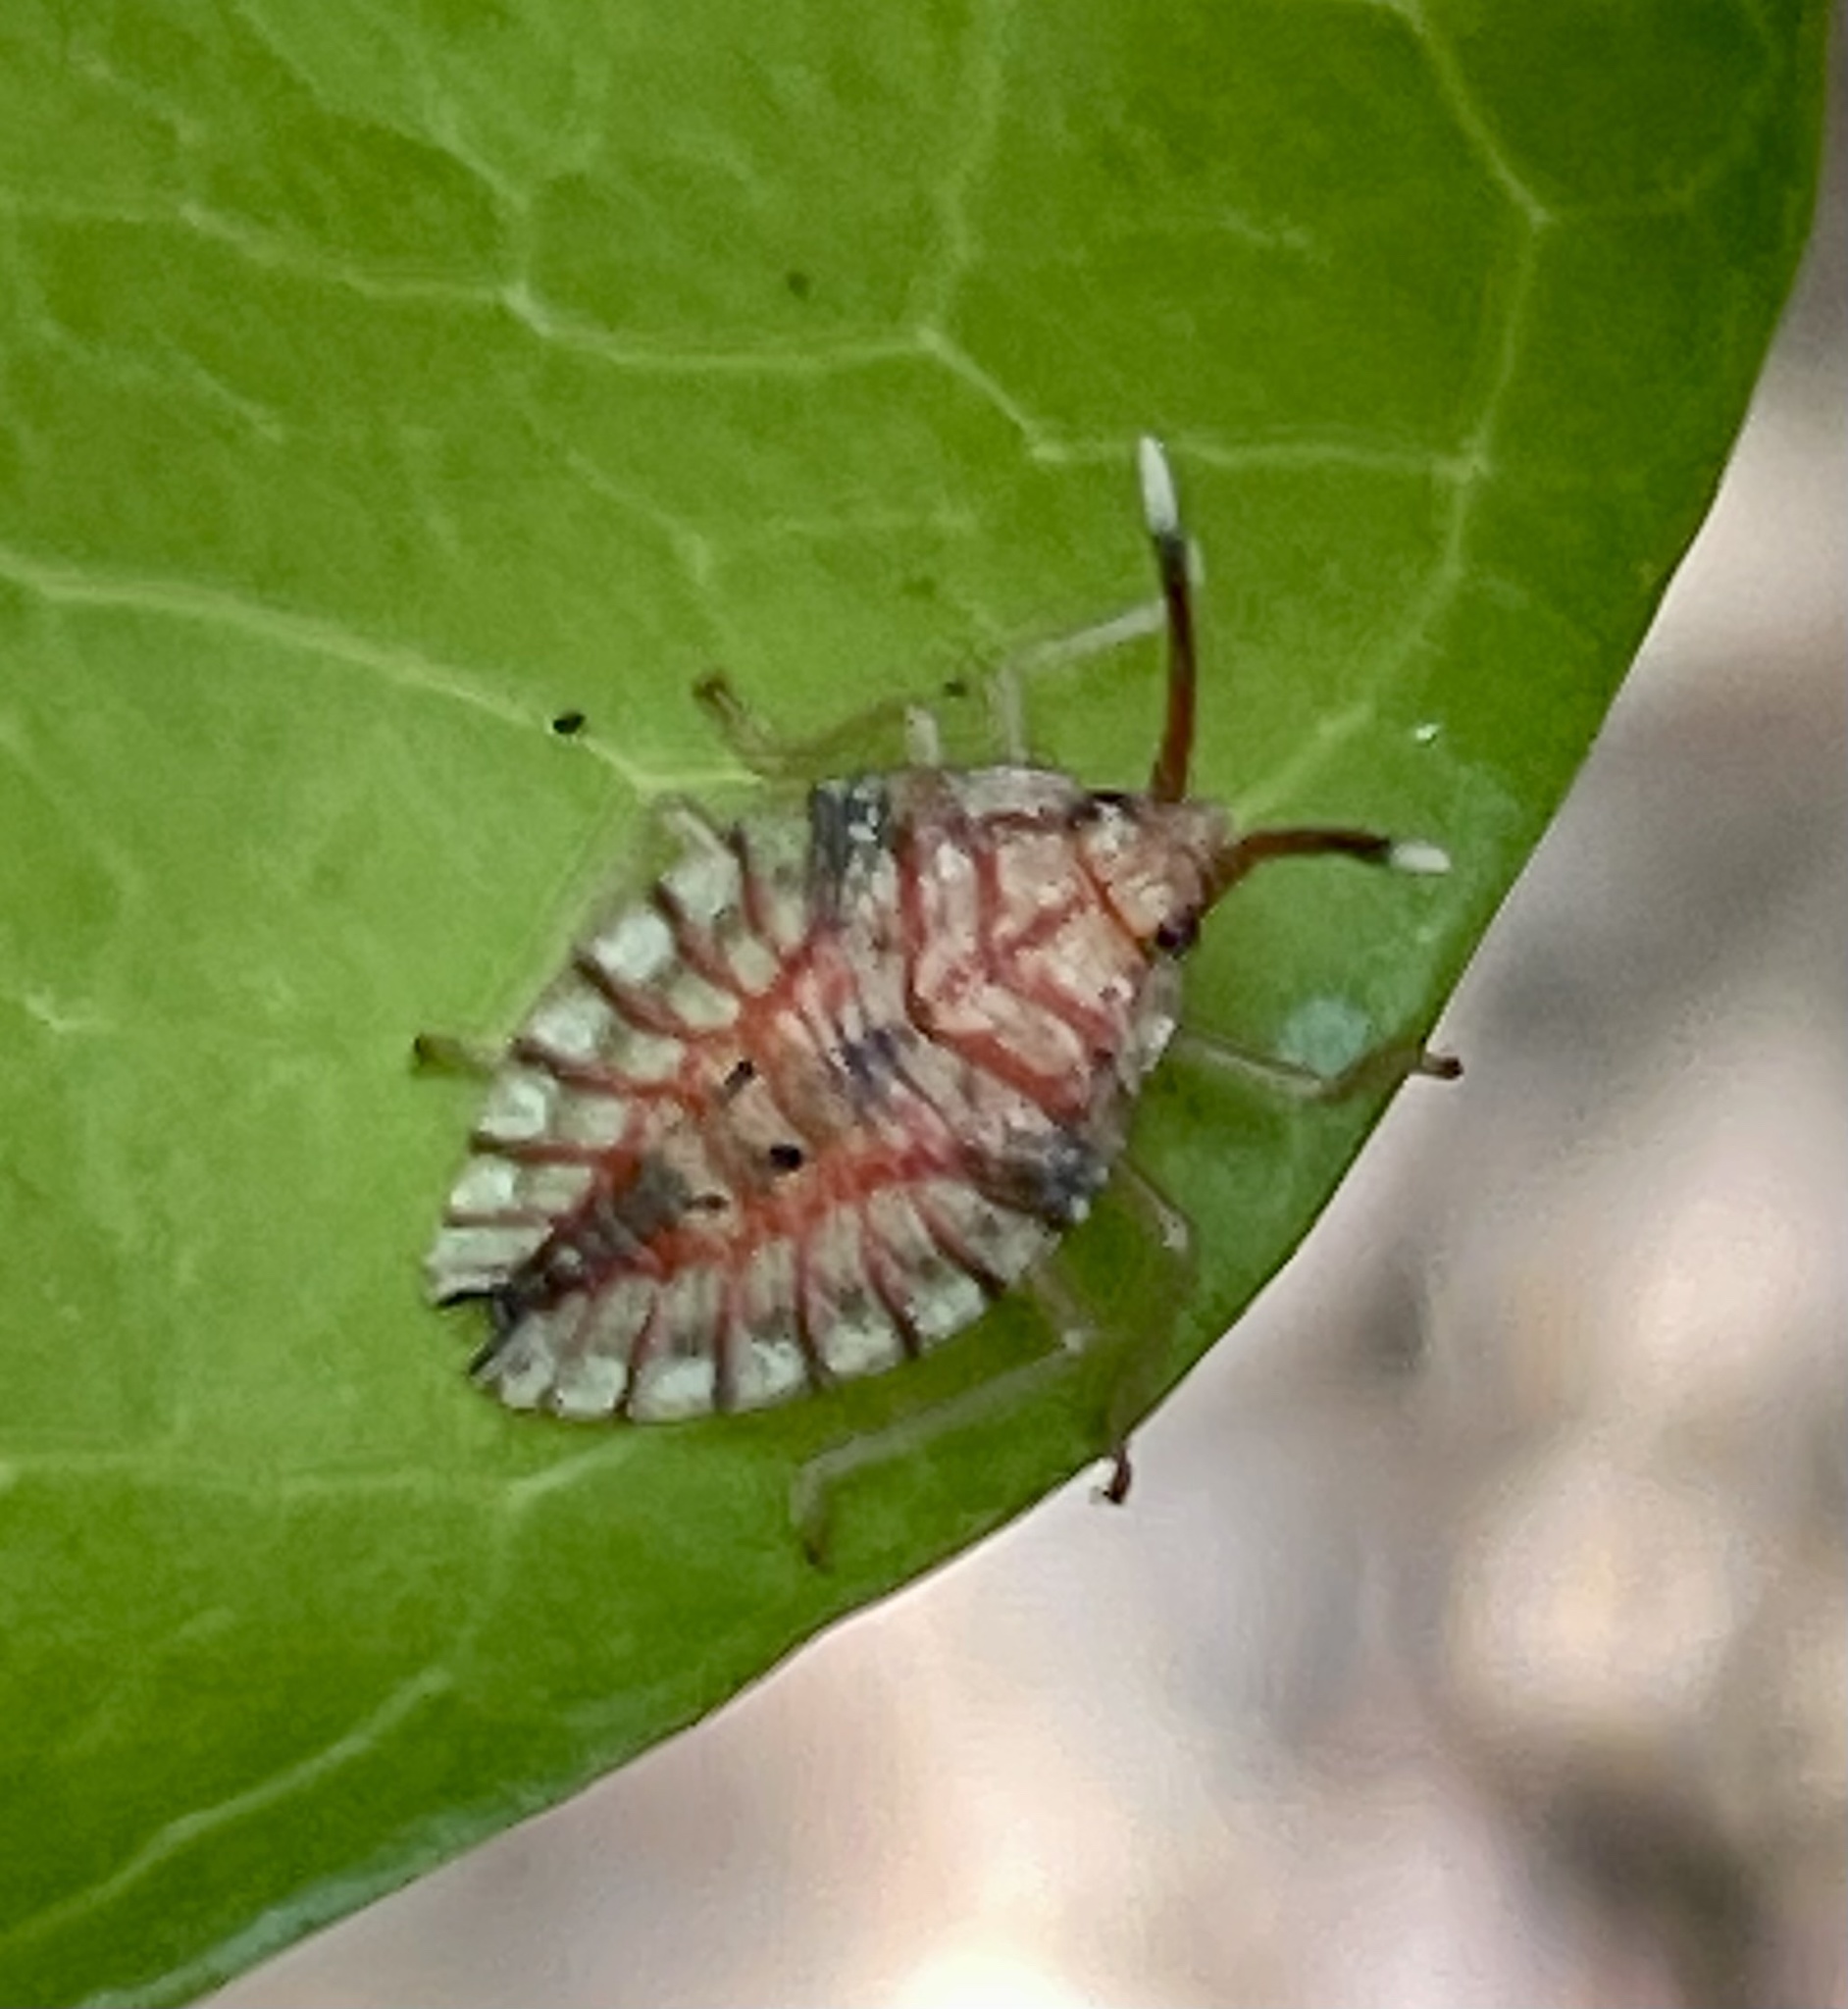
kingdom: Animalia
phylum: Arthropoda
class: Insecta
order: Hemiptera
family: Tessaratomidae
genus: Stilida
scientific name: Stilida indecora
